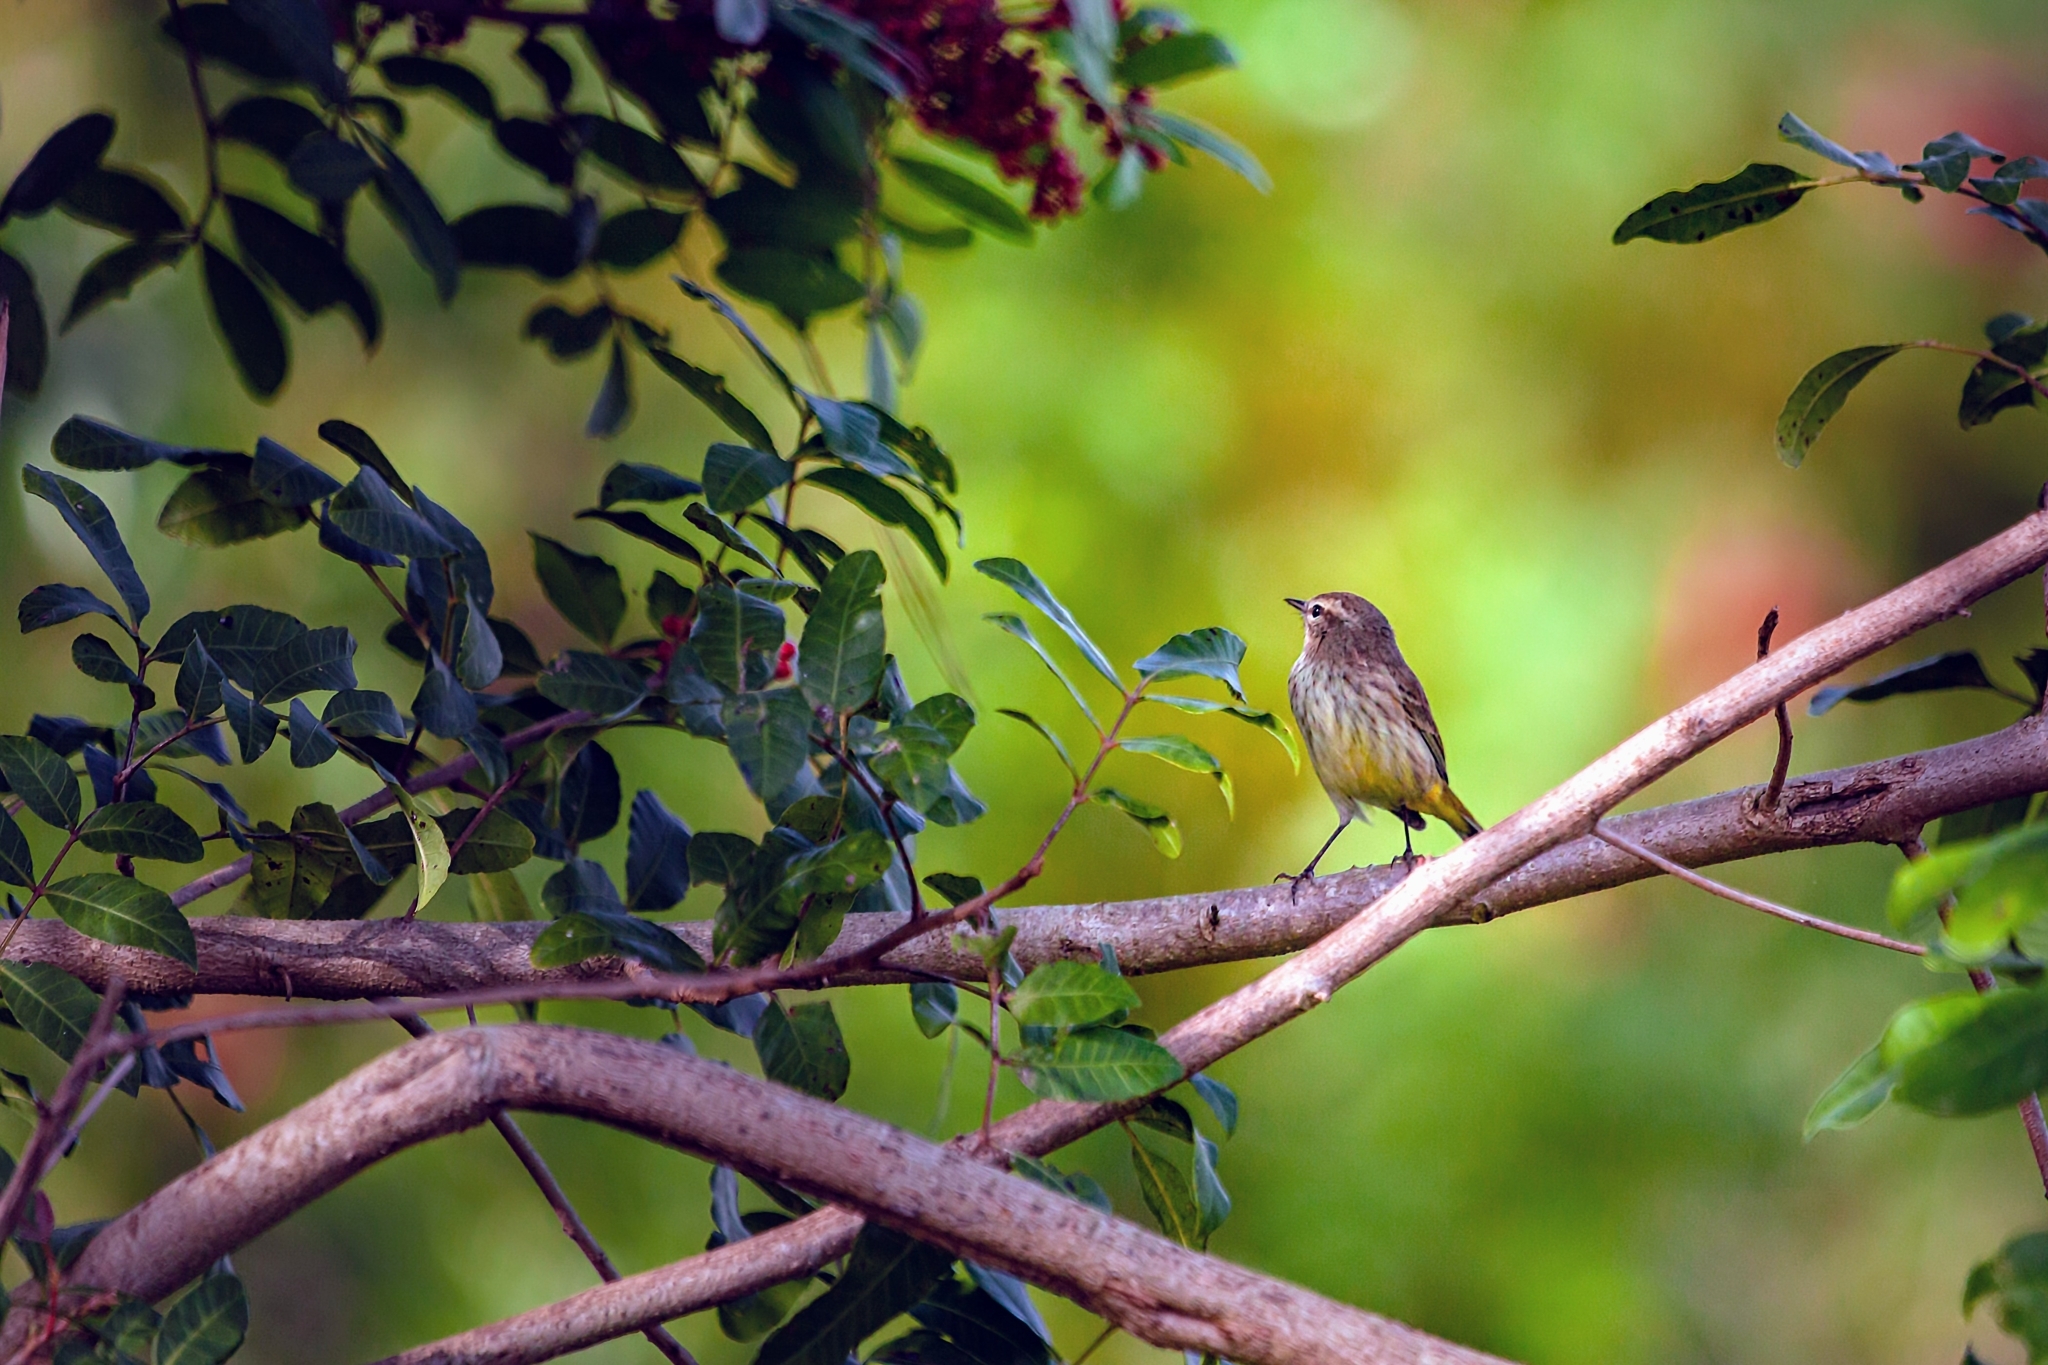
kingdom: Animalia
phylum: Chordata
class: Aves
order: Passeriformes
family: Parulidae
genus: Setophaga
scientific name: Setophaga palmarum
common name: Palm warbler
